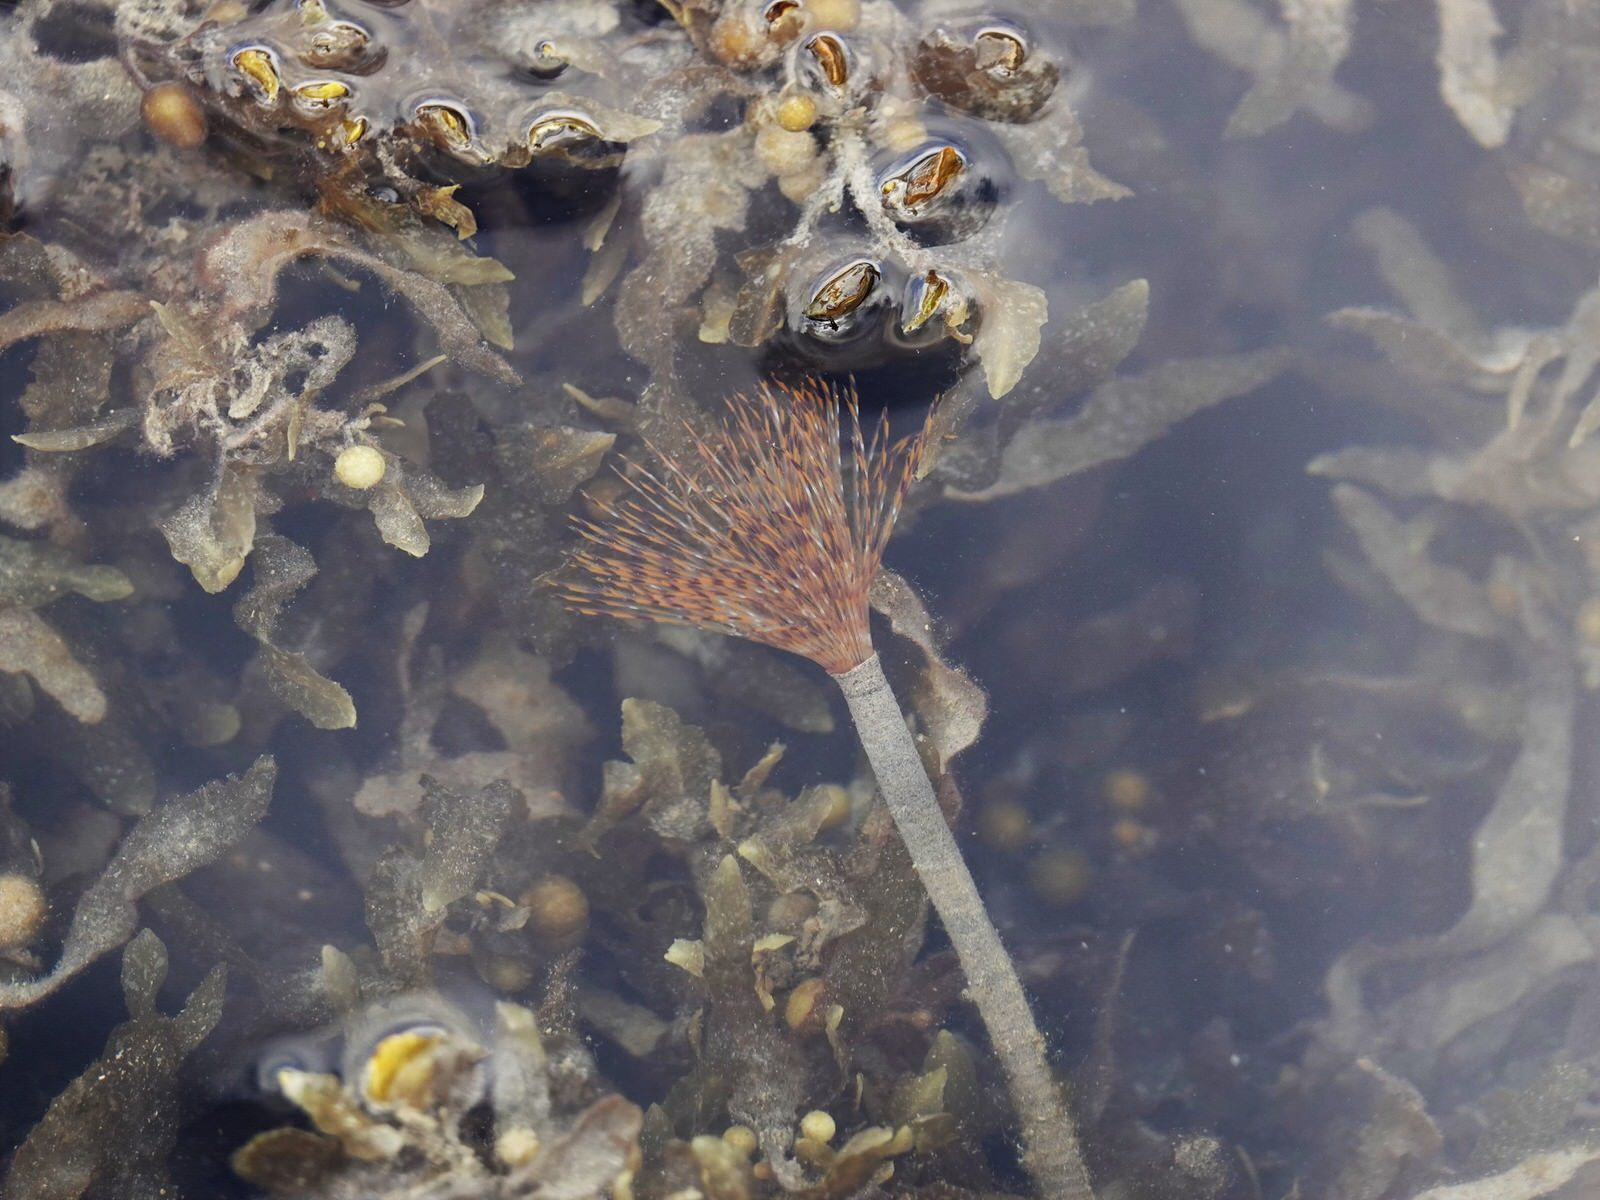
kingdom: Animalia
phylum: Annelida
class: Polychaeta
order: Sabellida
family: Sabellidae
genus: Sabella
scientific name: Sabella spallanzanii
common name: Feather duster worm
